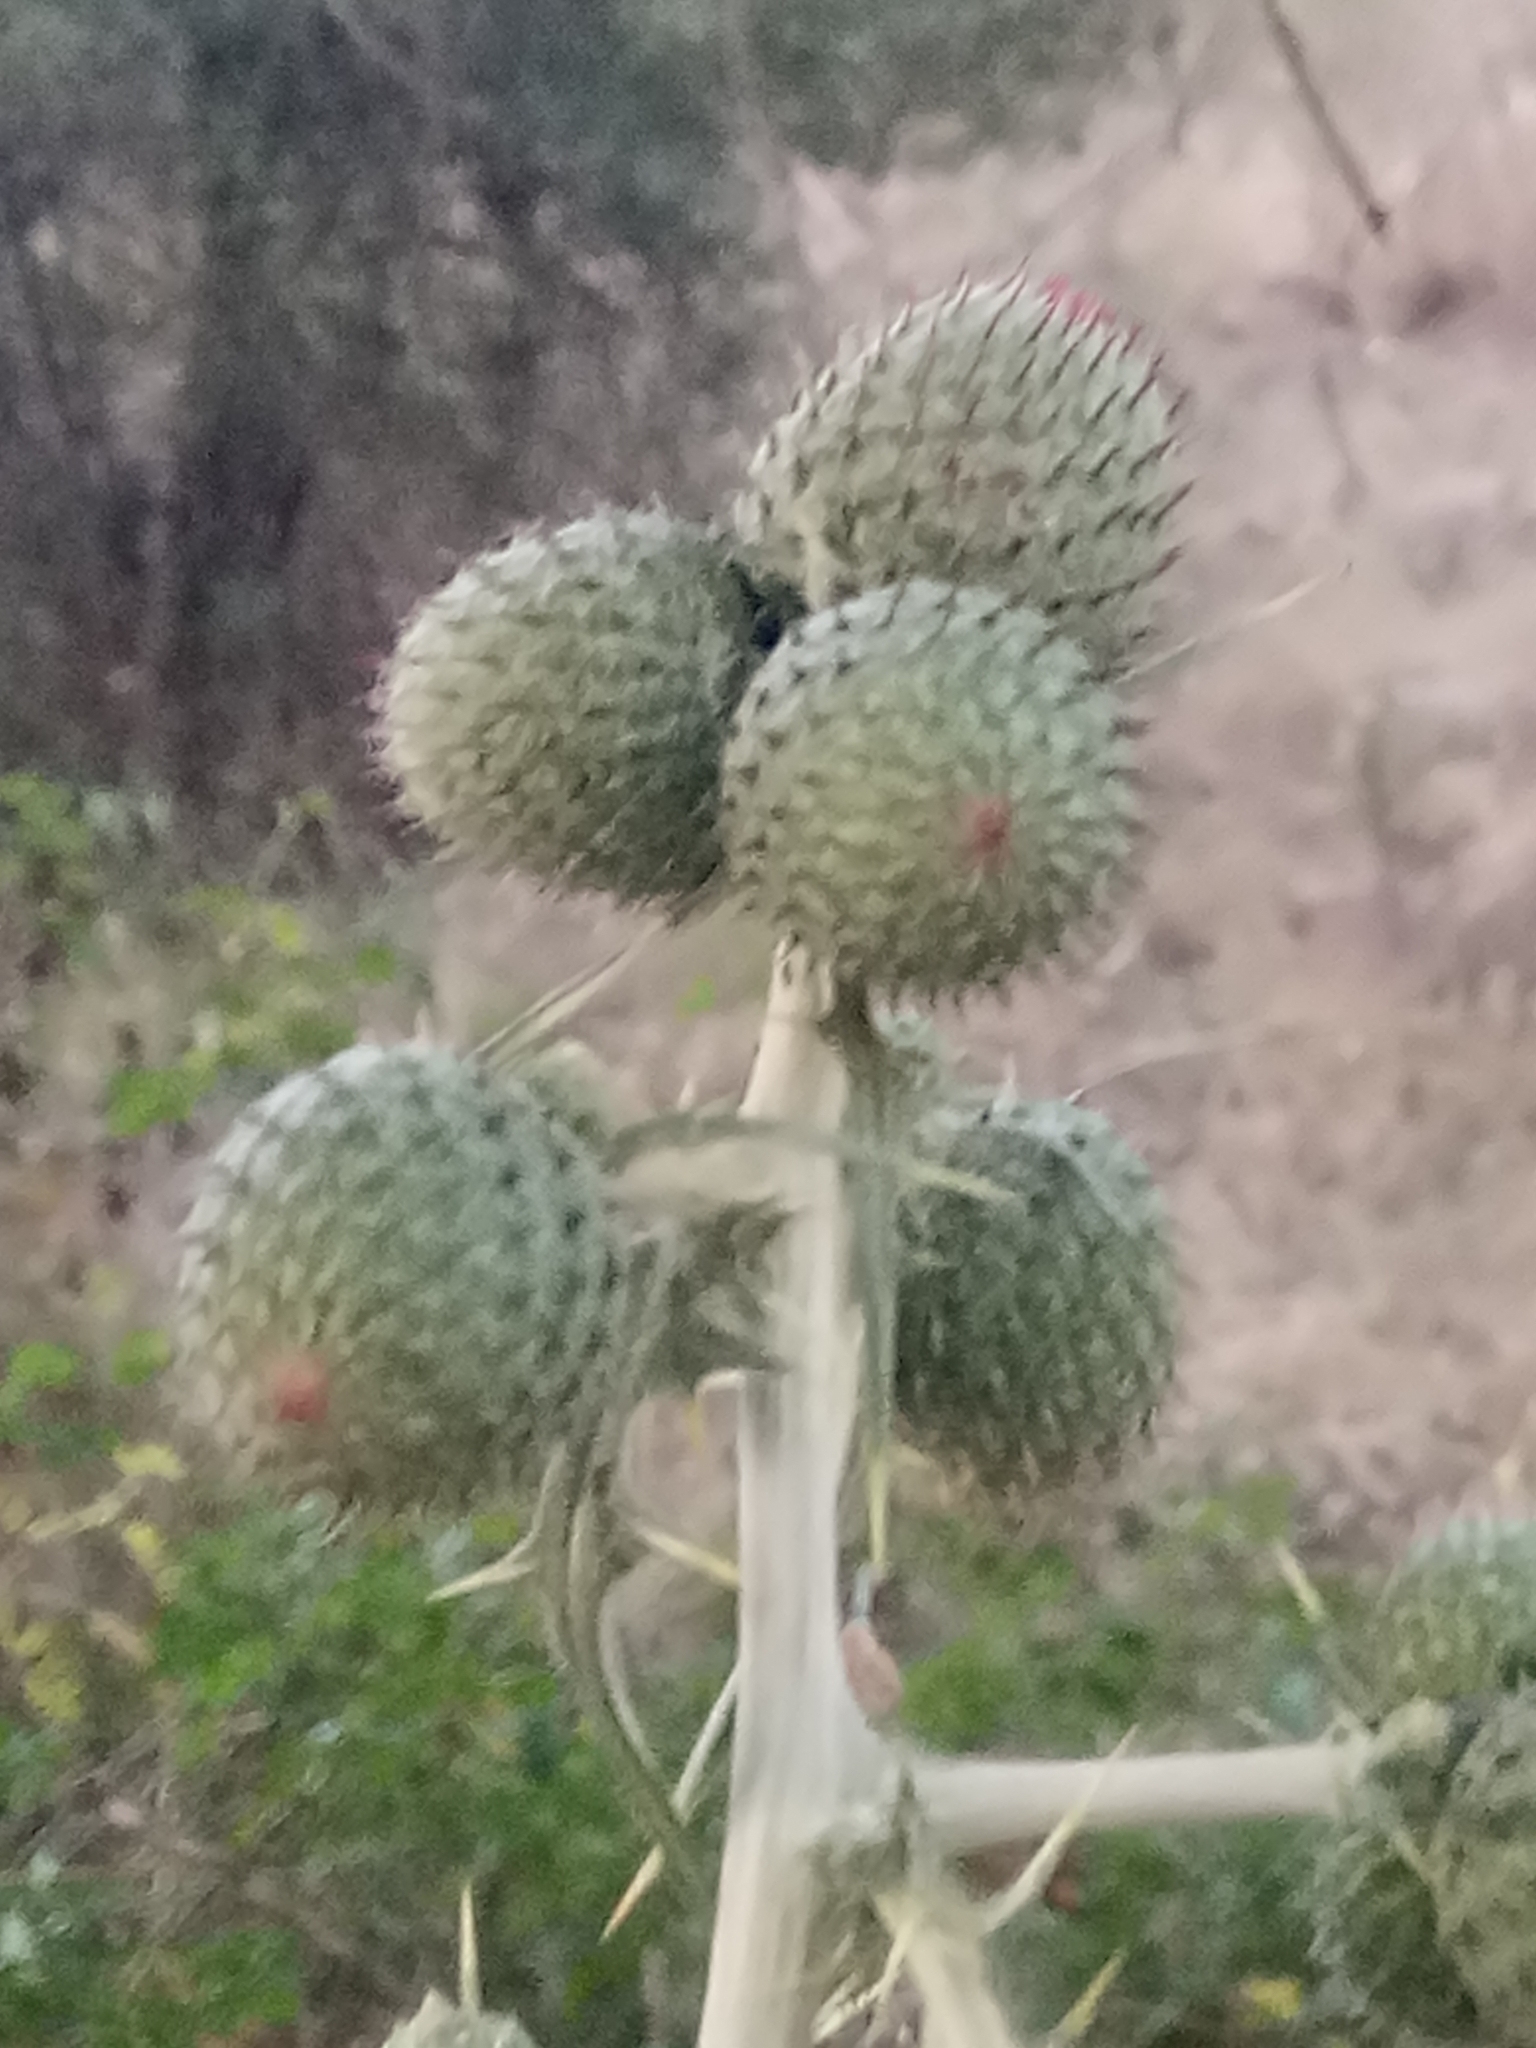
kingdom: Plantae
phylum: Tracheophyta
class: Magnoliopsida
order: Asterales
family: Asteraceae
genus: Lophiolepis
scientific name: Lophiolepis scabra
